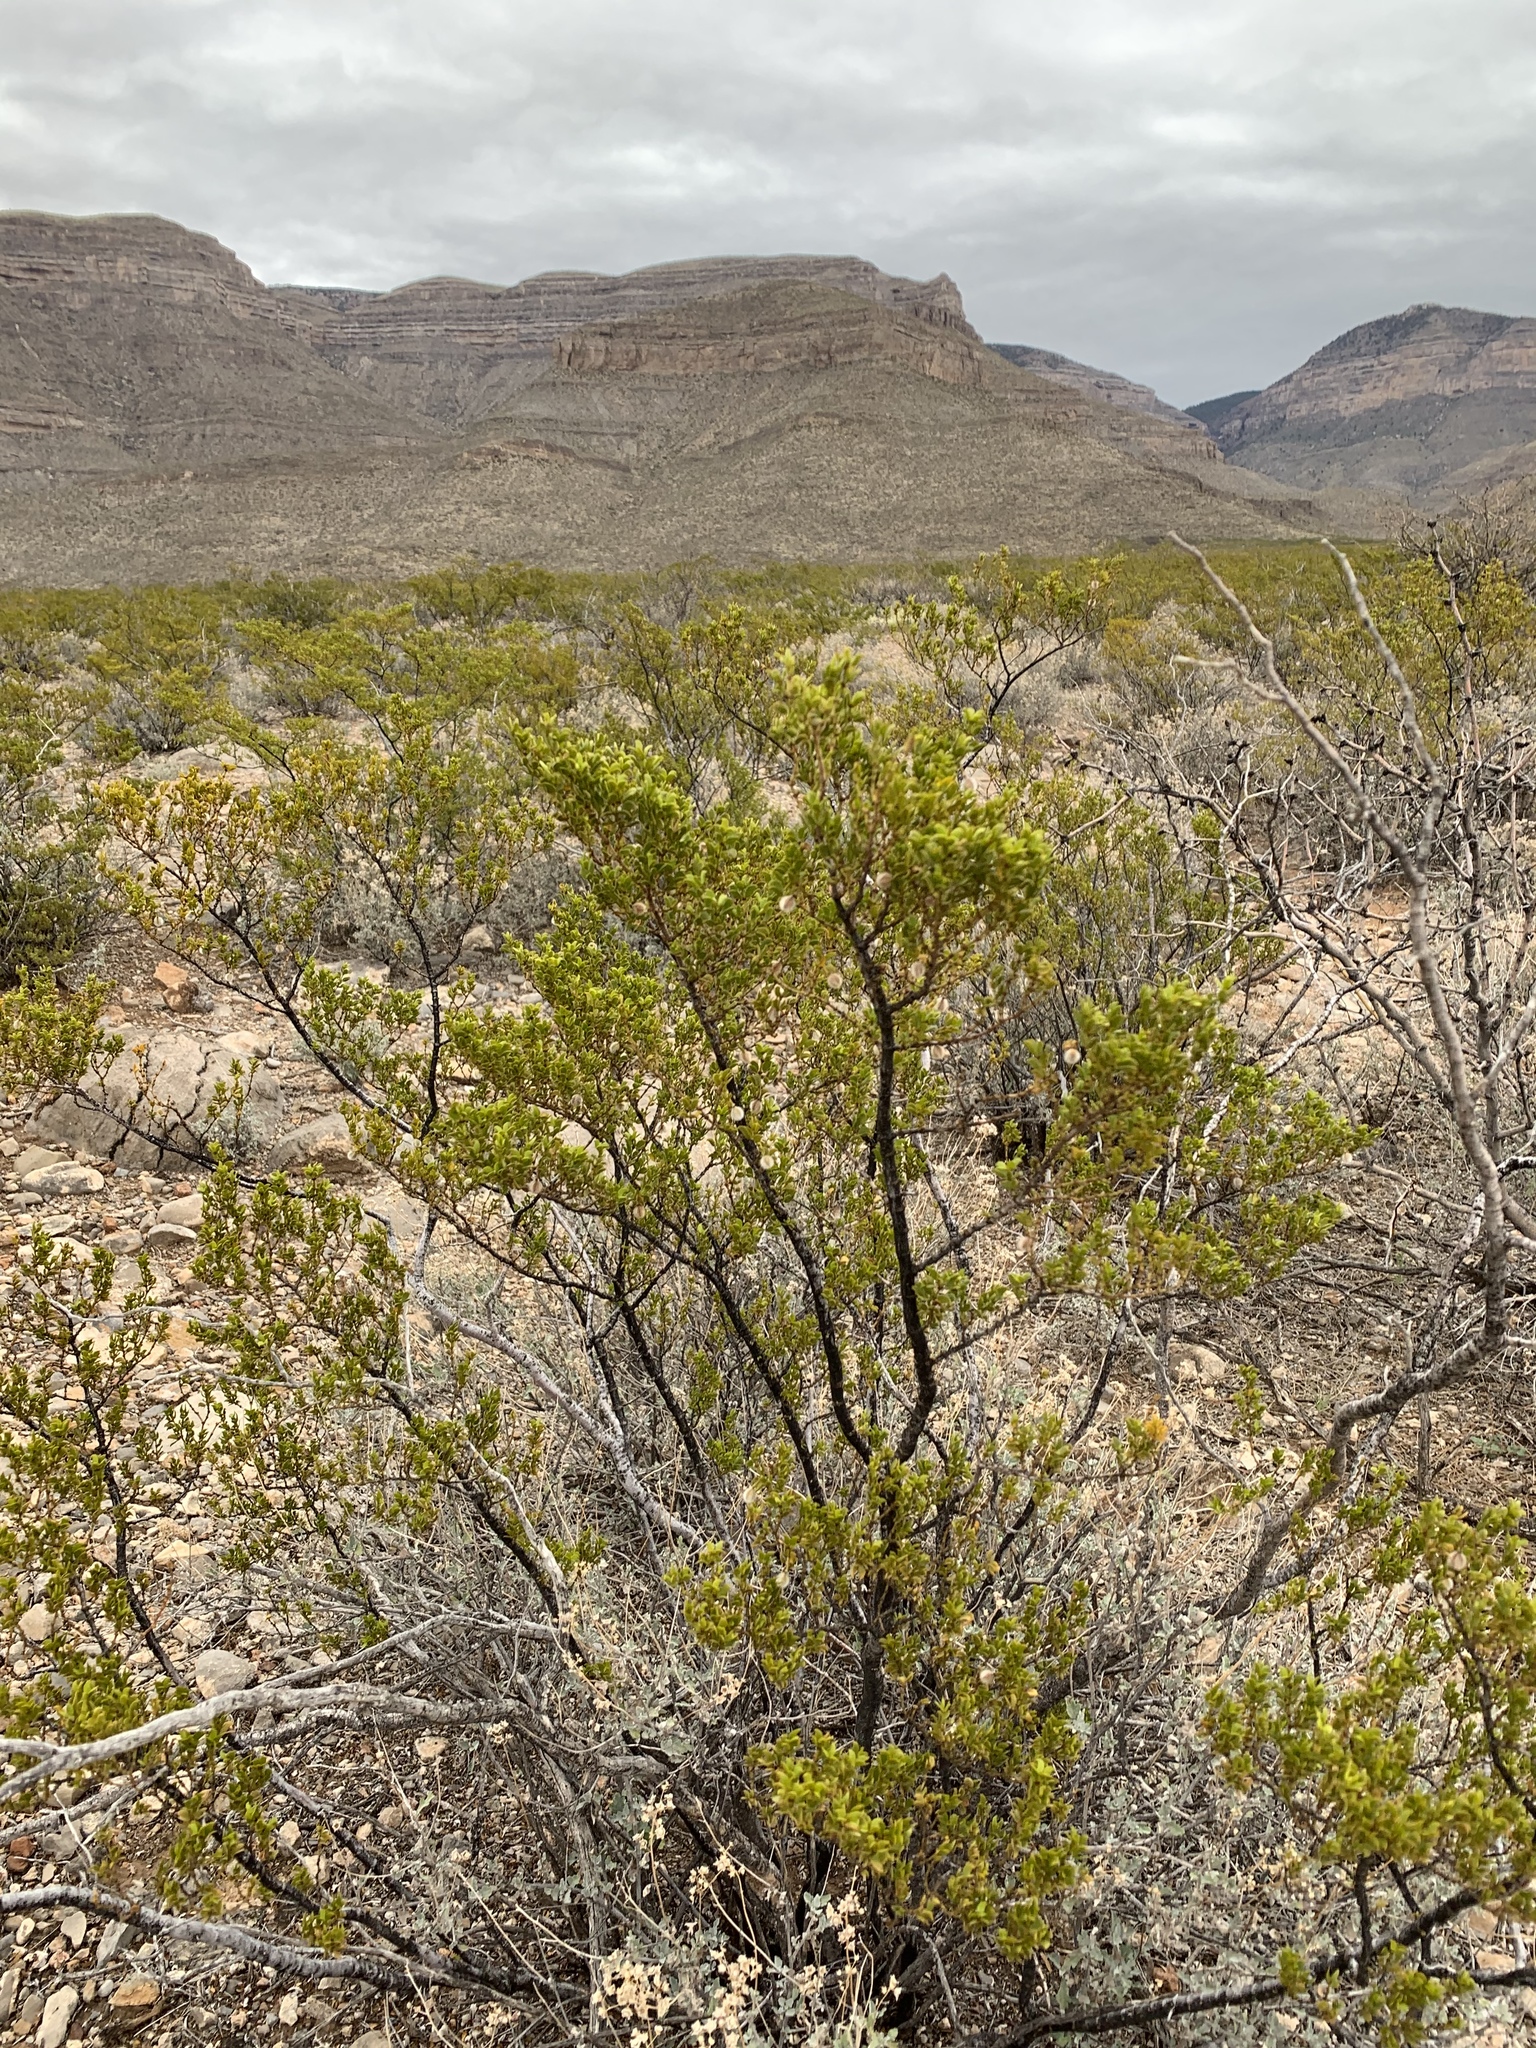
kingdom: Plantae
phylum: Tracheophyta
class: Magnoliopsida
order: Zygophyllales
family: Zygophyllaceae
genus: Larrea
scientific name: Larrea tridentata
